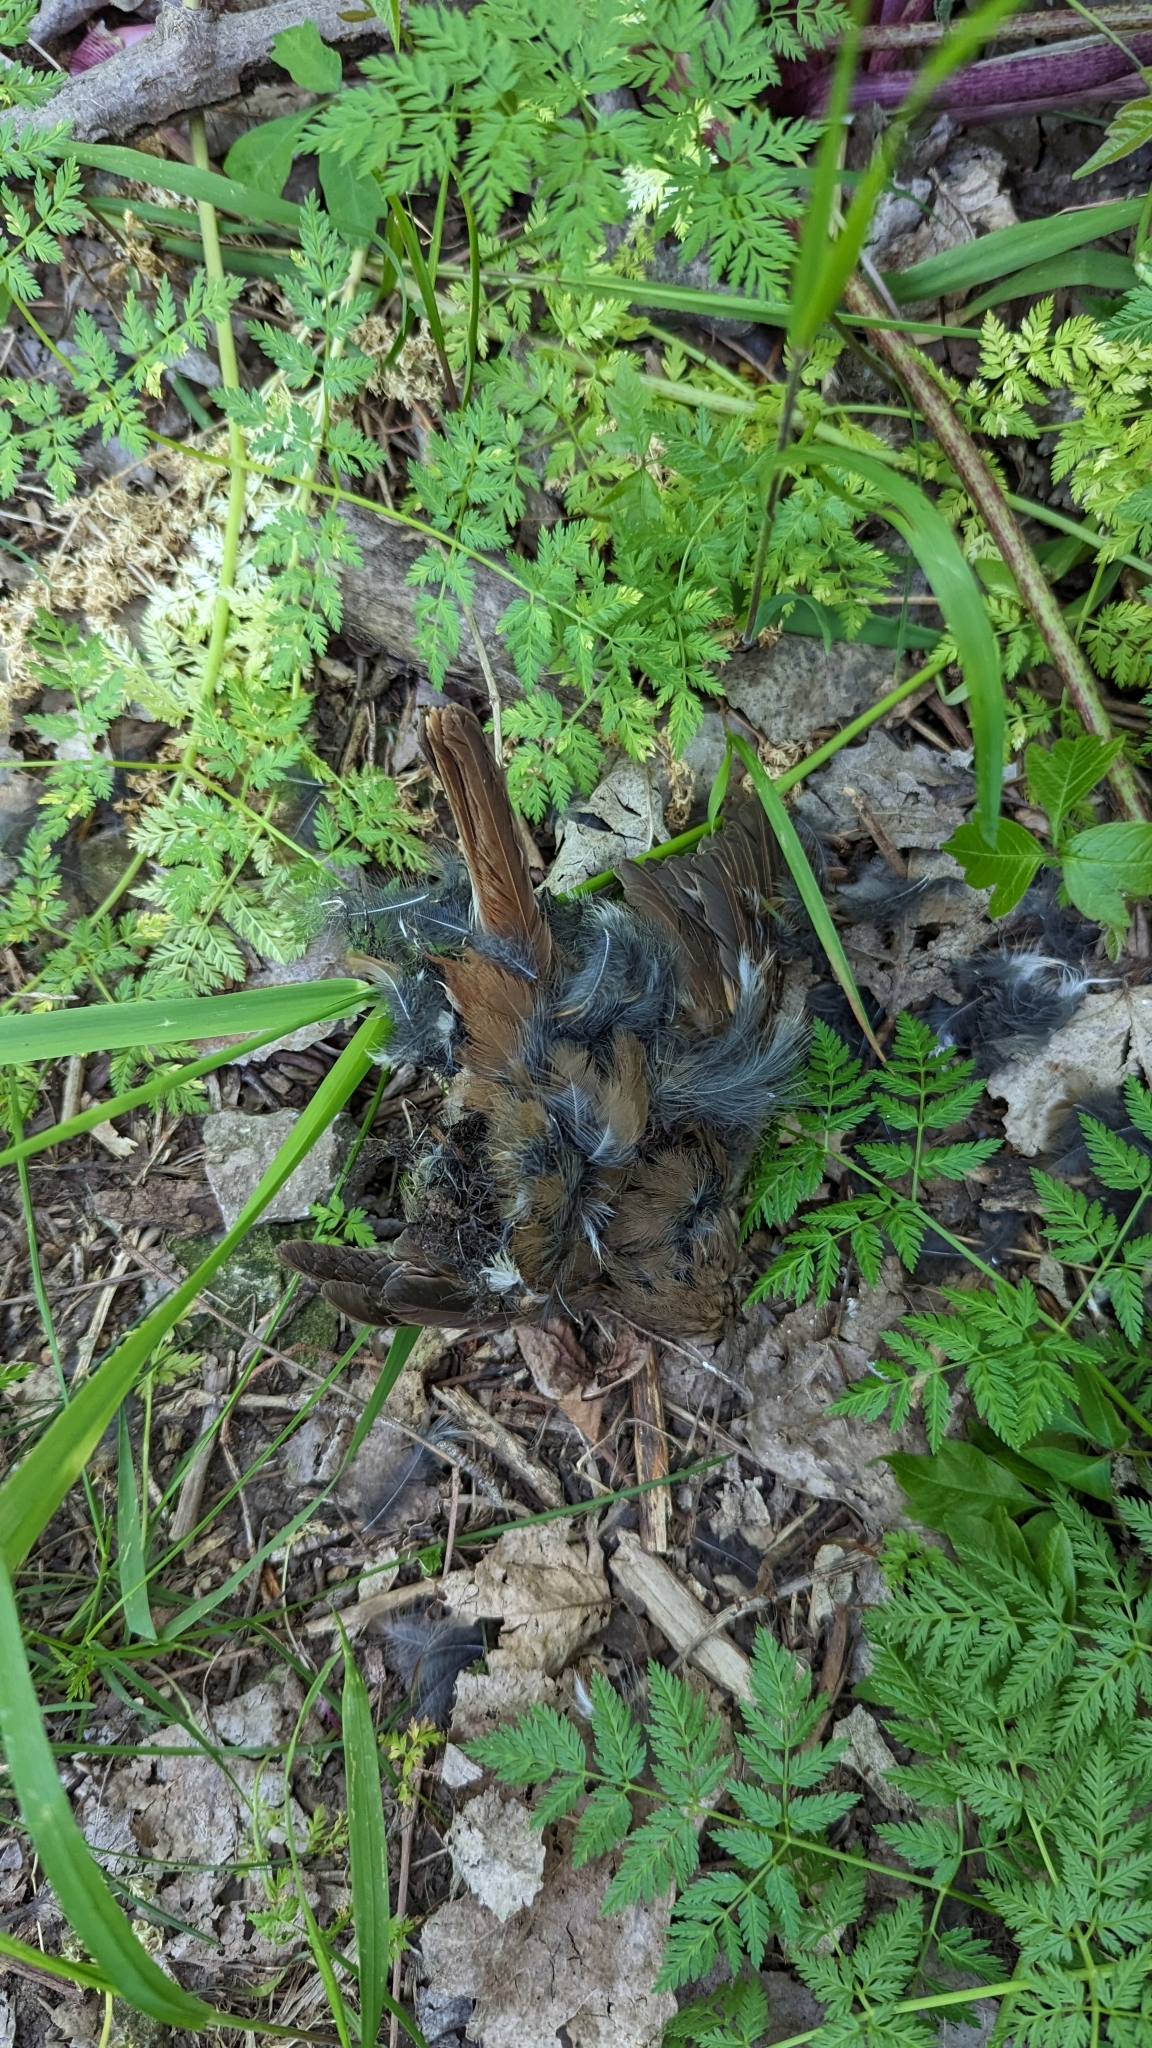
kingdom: Animalia
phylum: Chordata
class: Aves
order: Passeriformes
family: Turdidae
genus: Catharus
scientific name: Catharus guttatus
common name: Hermit thrush
